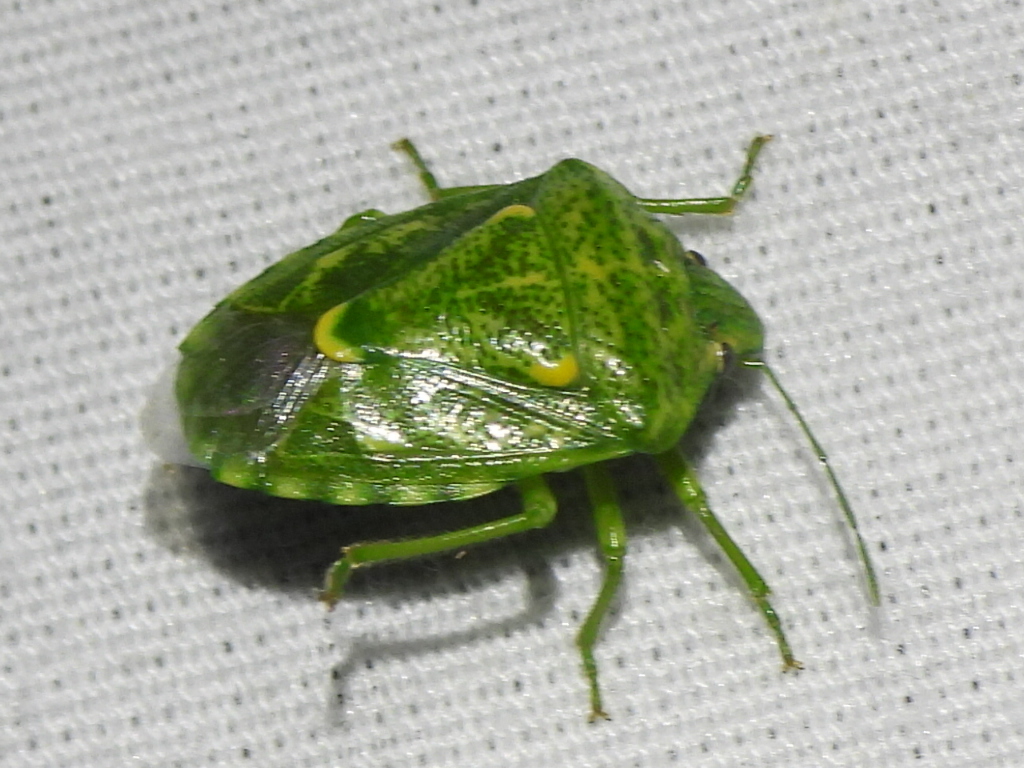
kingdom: Animalia
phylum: Arthropoda
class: Insecta
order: Hemiptera
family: Pentatomidae
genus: Banasa
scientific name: Banasa euchlora
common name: Cedar berry bug
